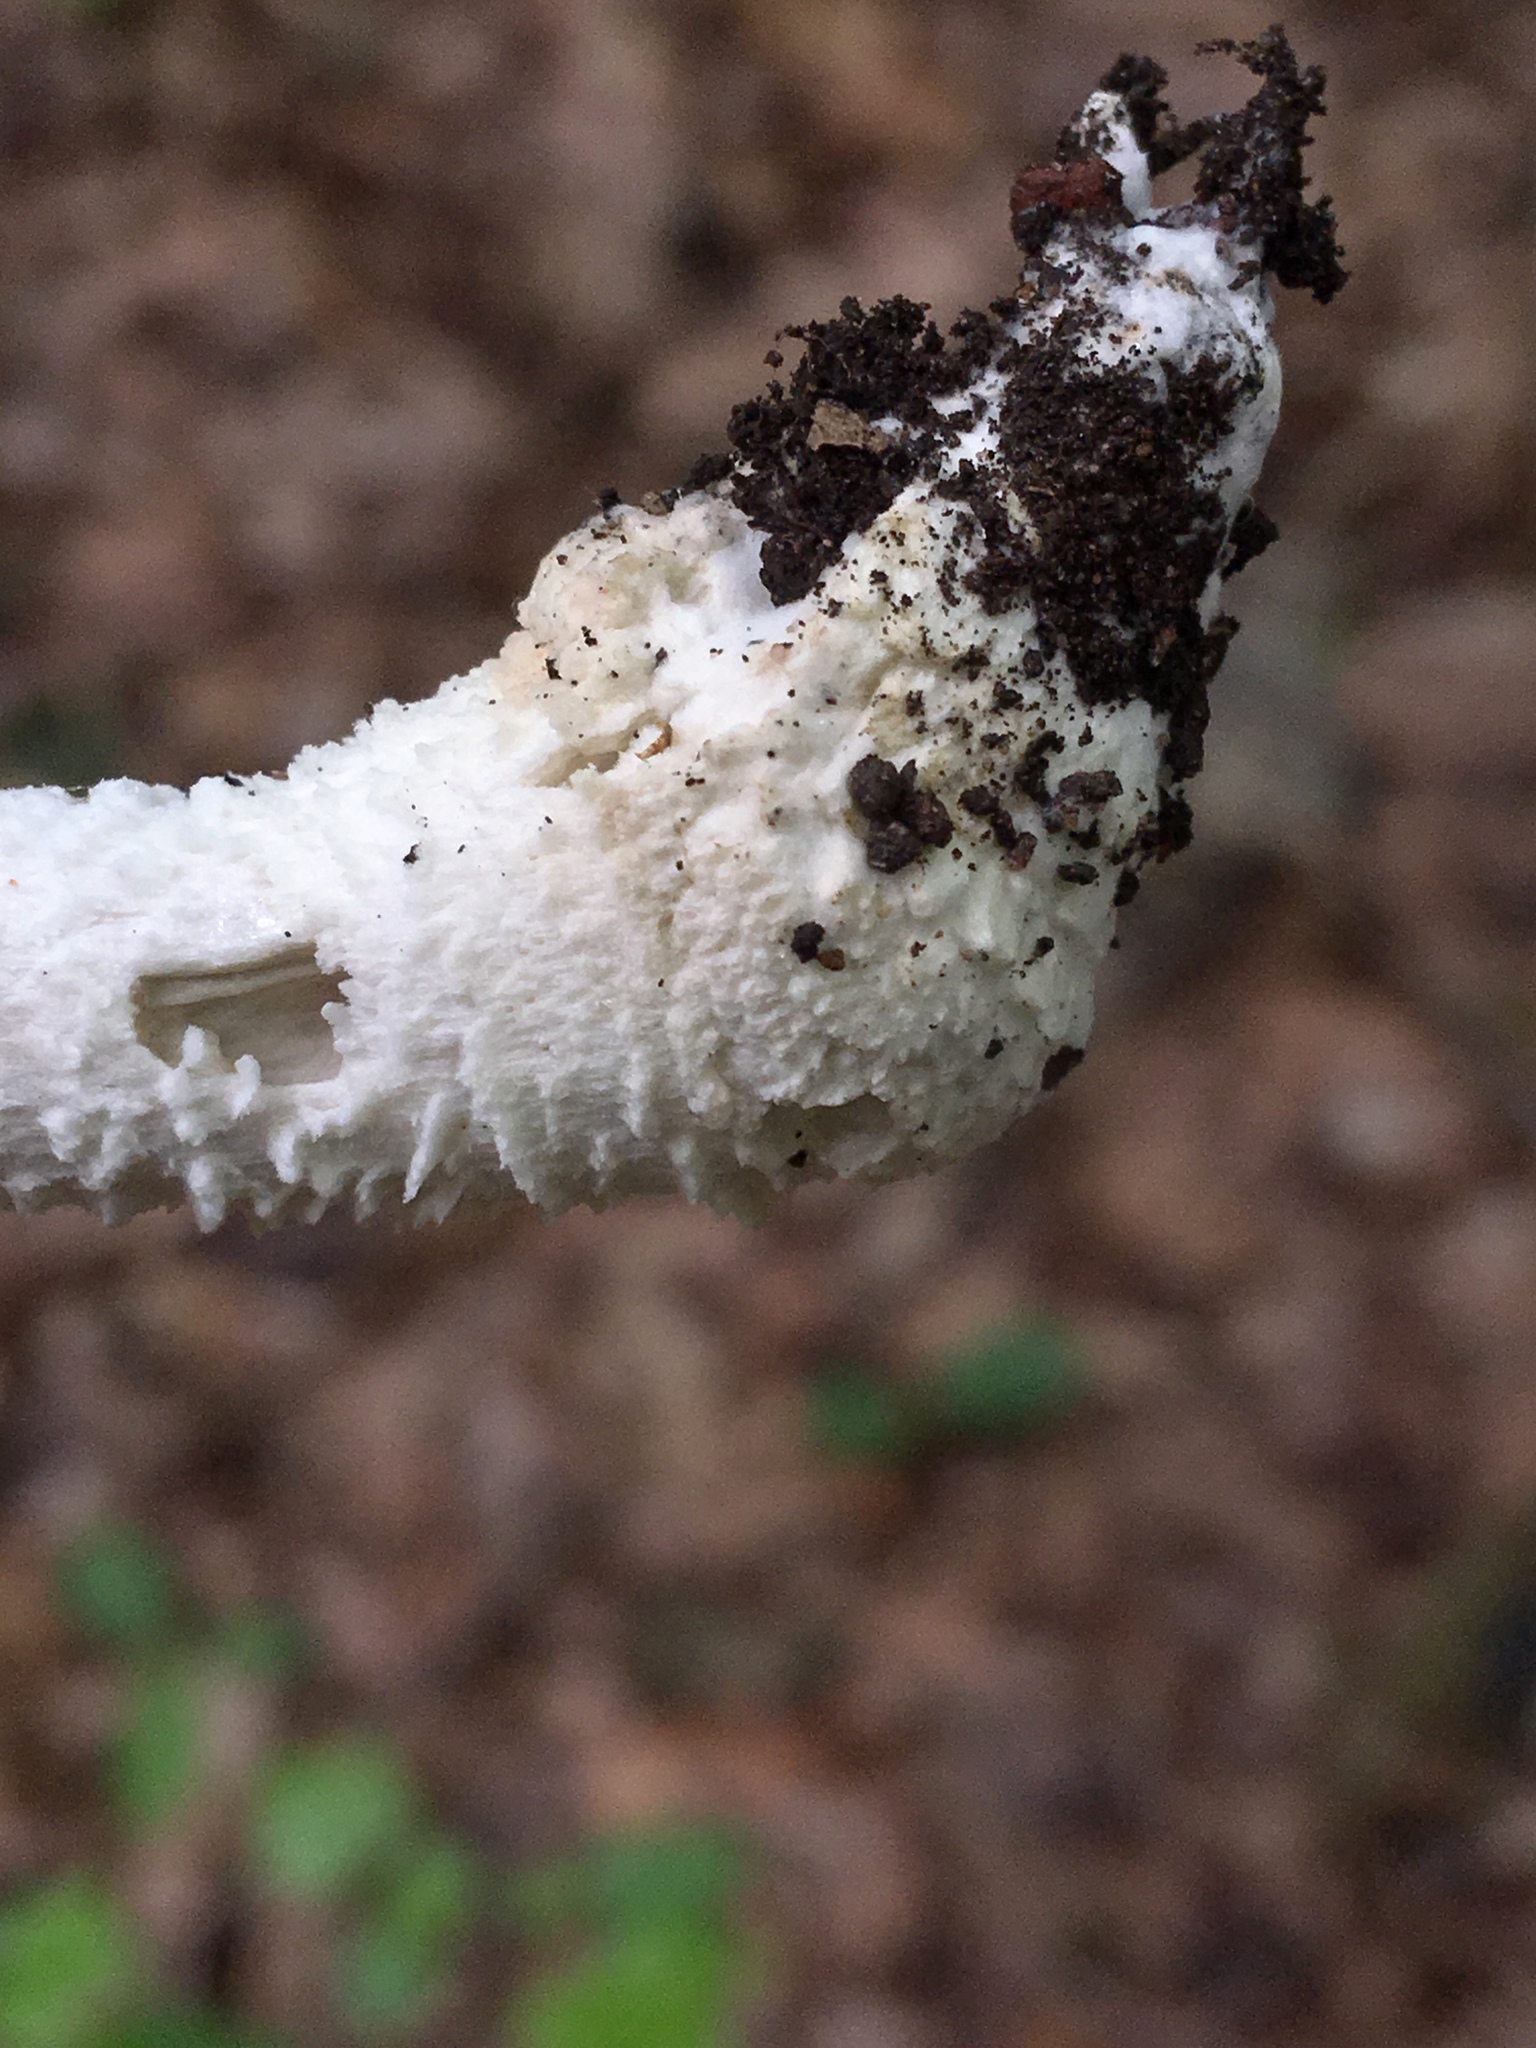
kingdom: Fungi
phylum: Basidiomycota
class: Agaricomycetes
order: Agaricales
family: Amanitaceae
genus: Amanita
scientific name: Amanita onusta
